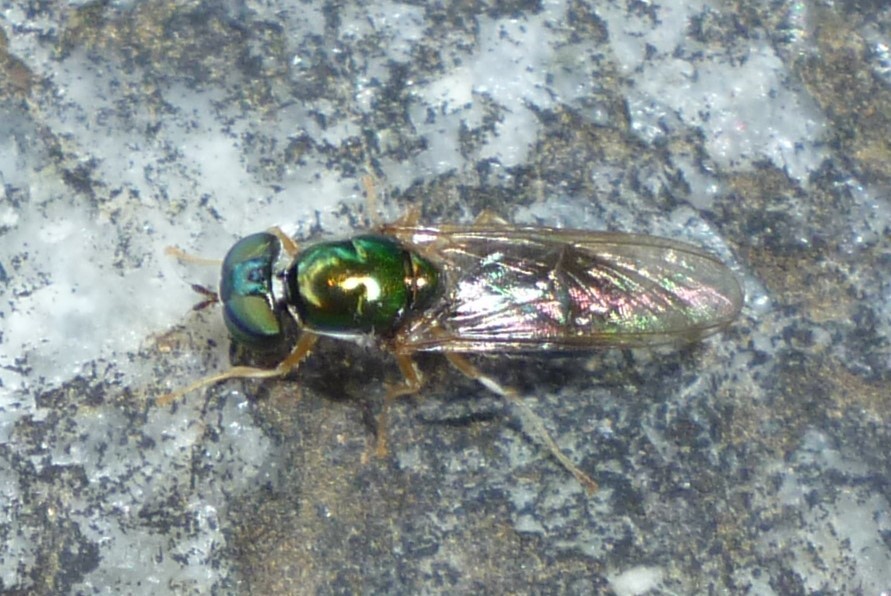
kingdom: Animalia
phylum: Arthropoda
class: Insecta
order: Diptera
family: Stratiomyidae
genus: Cephalochrysa
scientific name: Cephalochrysa nigricornis
